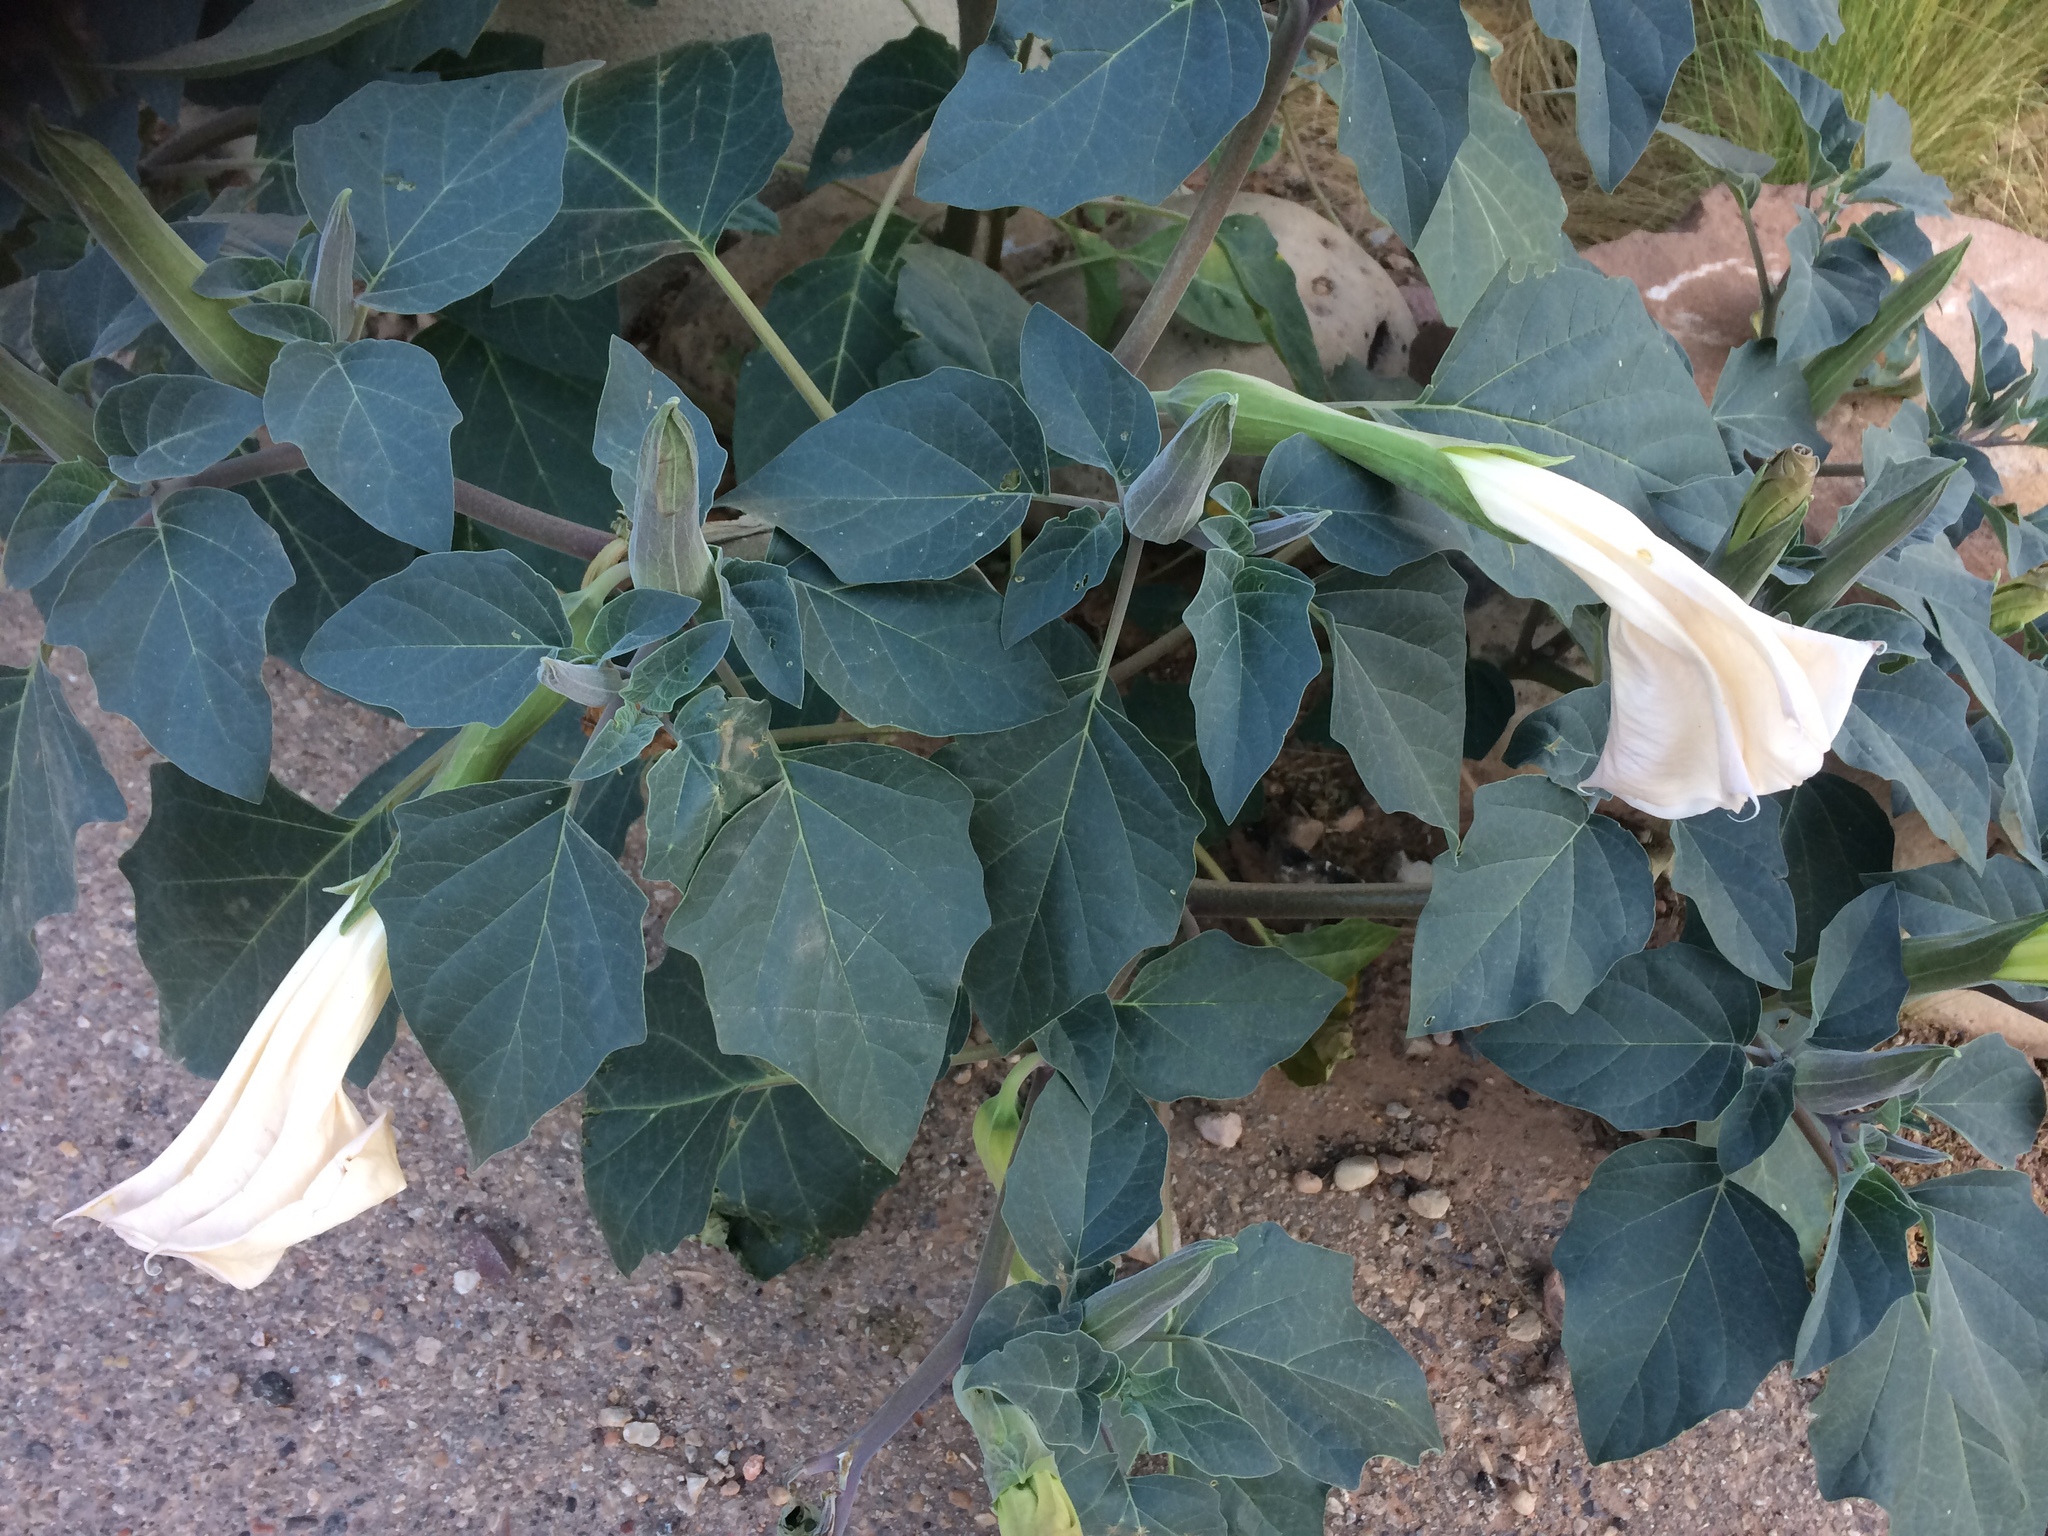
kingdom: Plantae
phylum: Tracheophyta
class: Magnoliopsida
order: Solanales
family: Solanaceae
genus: Datura
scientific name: Datura wrightii
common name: Sacred thorn-apple
